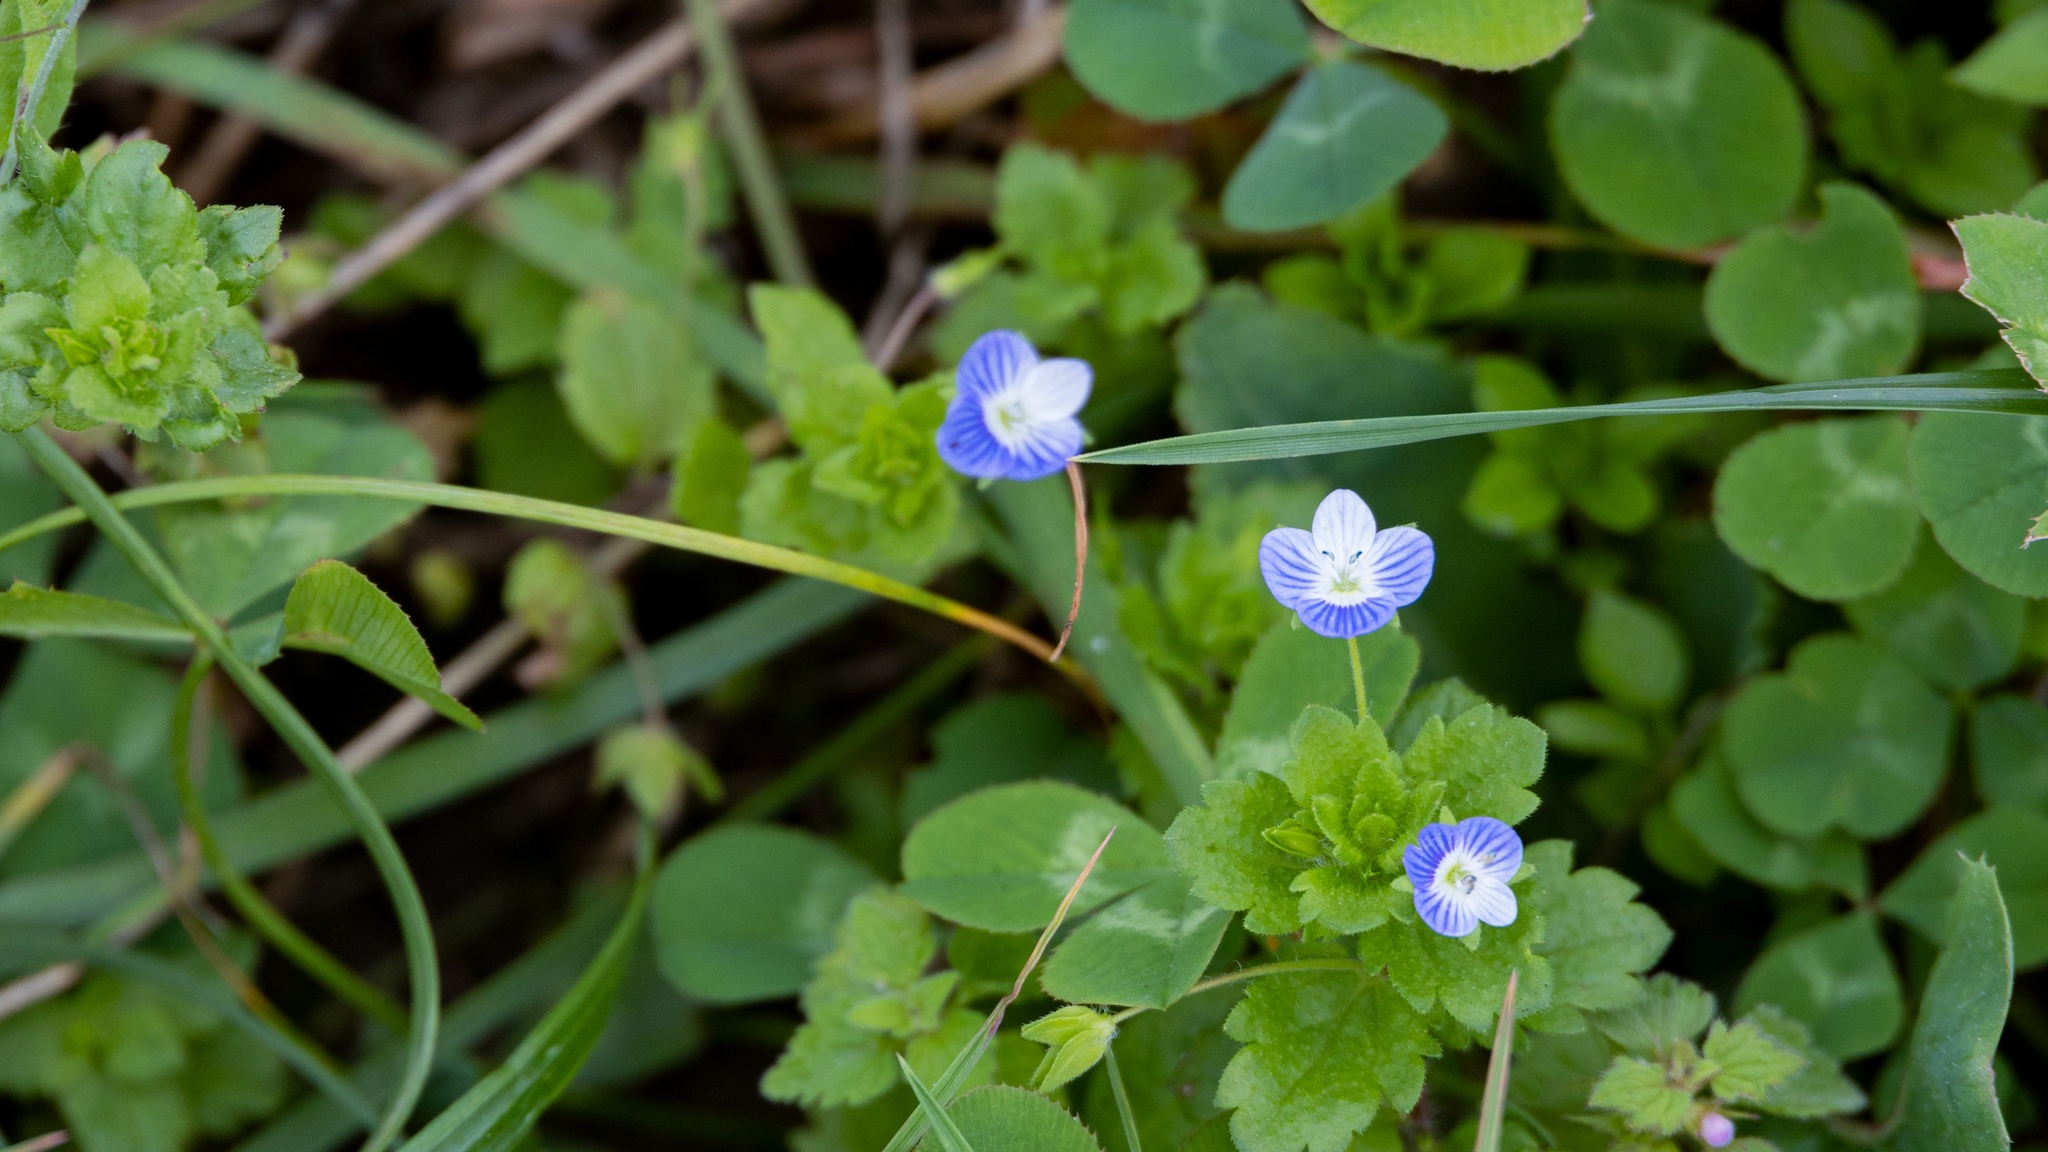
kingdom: Plantae
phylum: Tracheophyta
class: Magnoliopsida
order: Lamiales
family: Plantaginaceae
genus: Veronica
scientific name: Veronica persica
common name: Common field-speedwell
